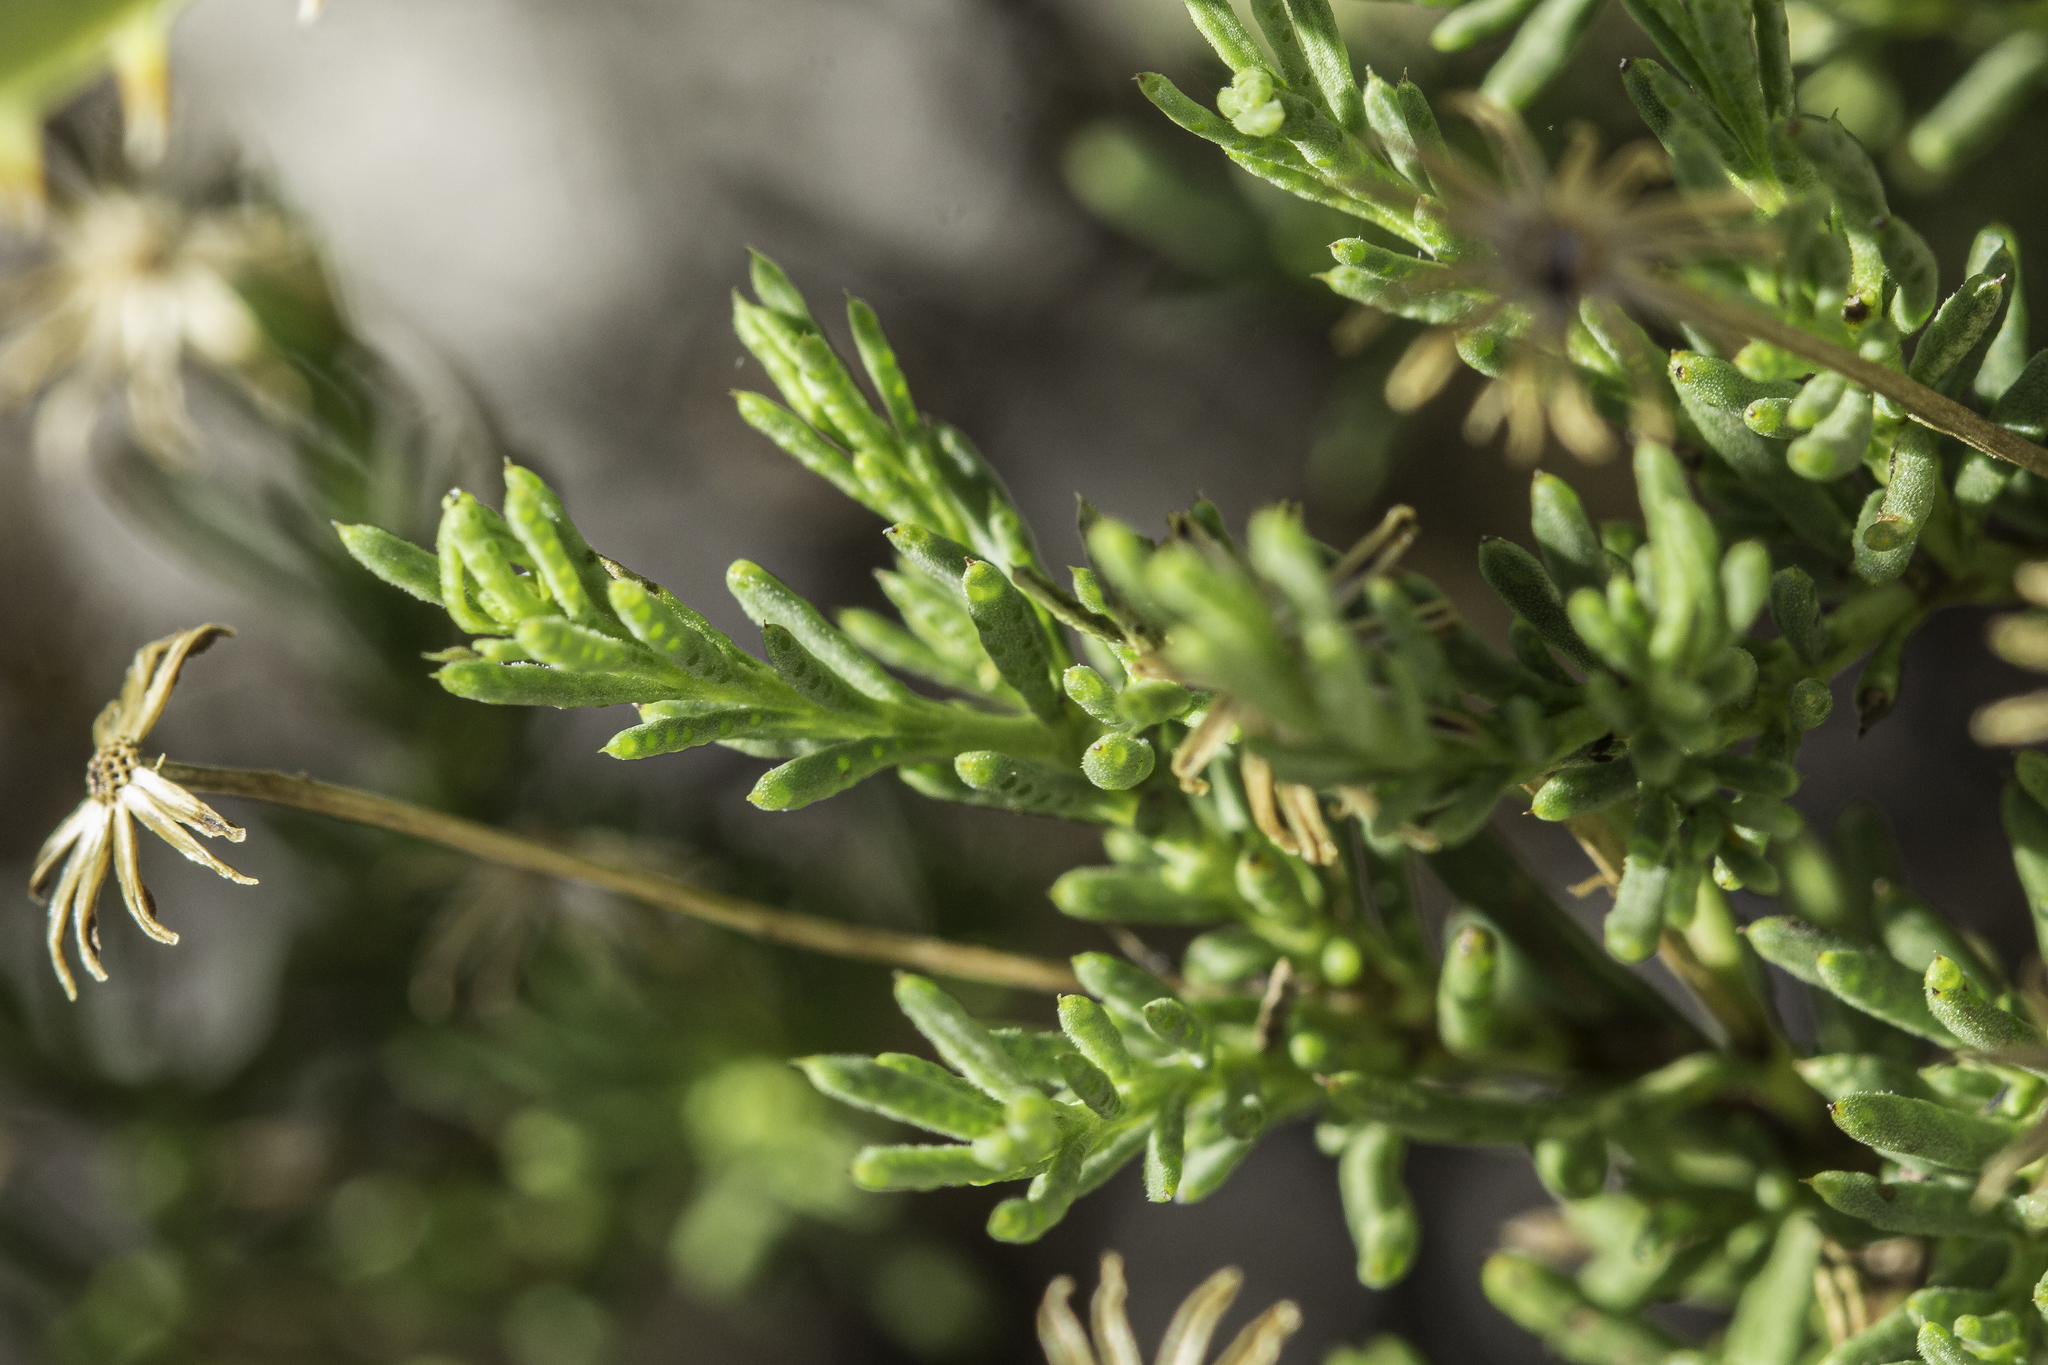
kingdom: Plantae
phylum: Tracheophyta
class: Magnoliopsida
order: Asterales
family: Asteraceae
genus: Chrysactinia
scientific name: Chrysactinia mexicana
